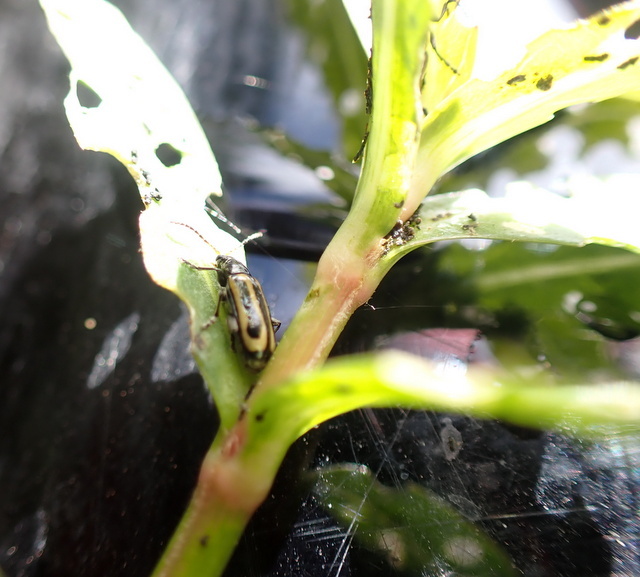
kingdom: Animalia
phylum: Arthropoda
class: Insecta
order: Coleoptera
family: Chrysomelidae
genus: Agasicles
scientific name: Agasicles hygrophila
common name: Alligatorweed flea beetle
